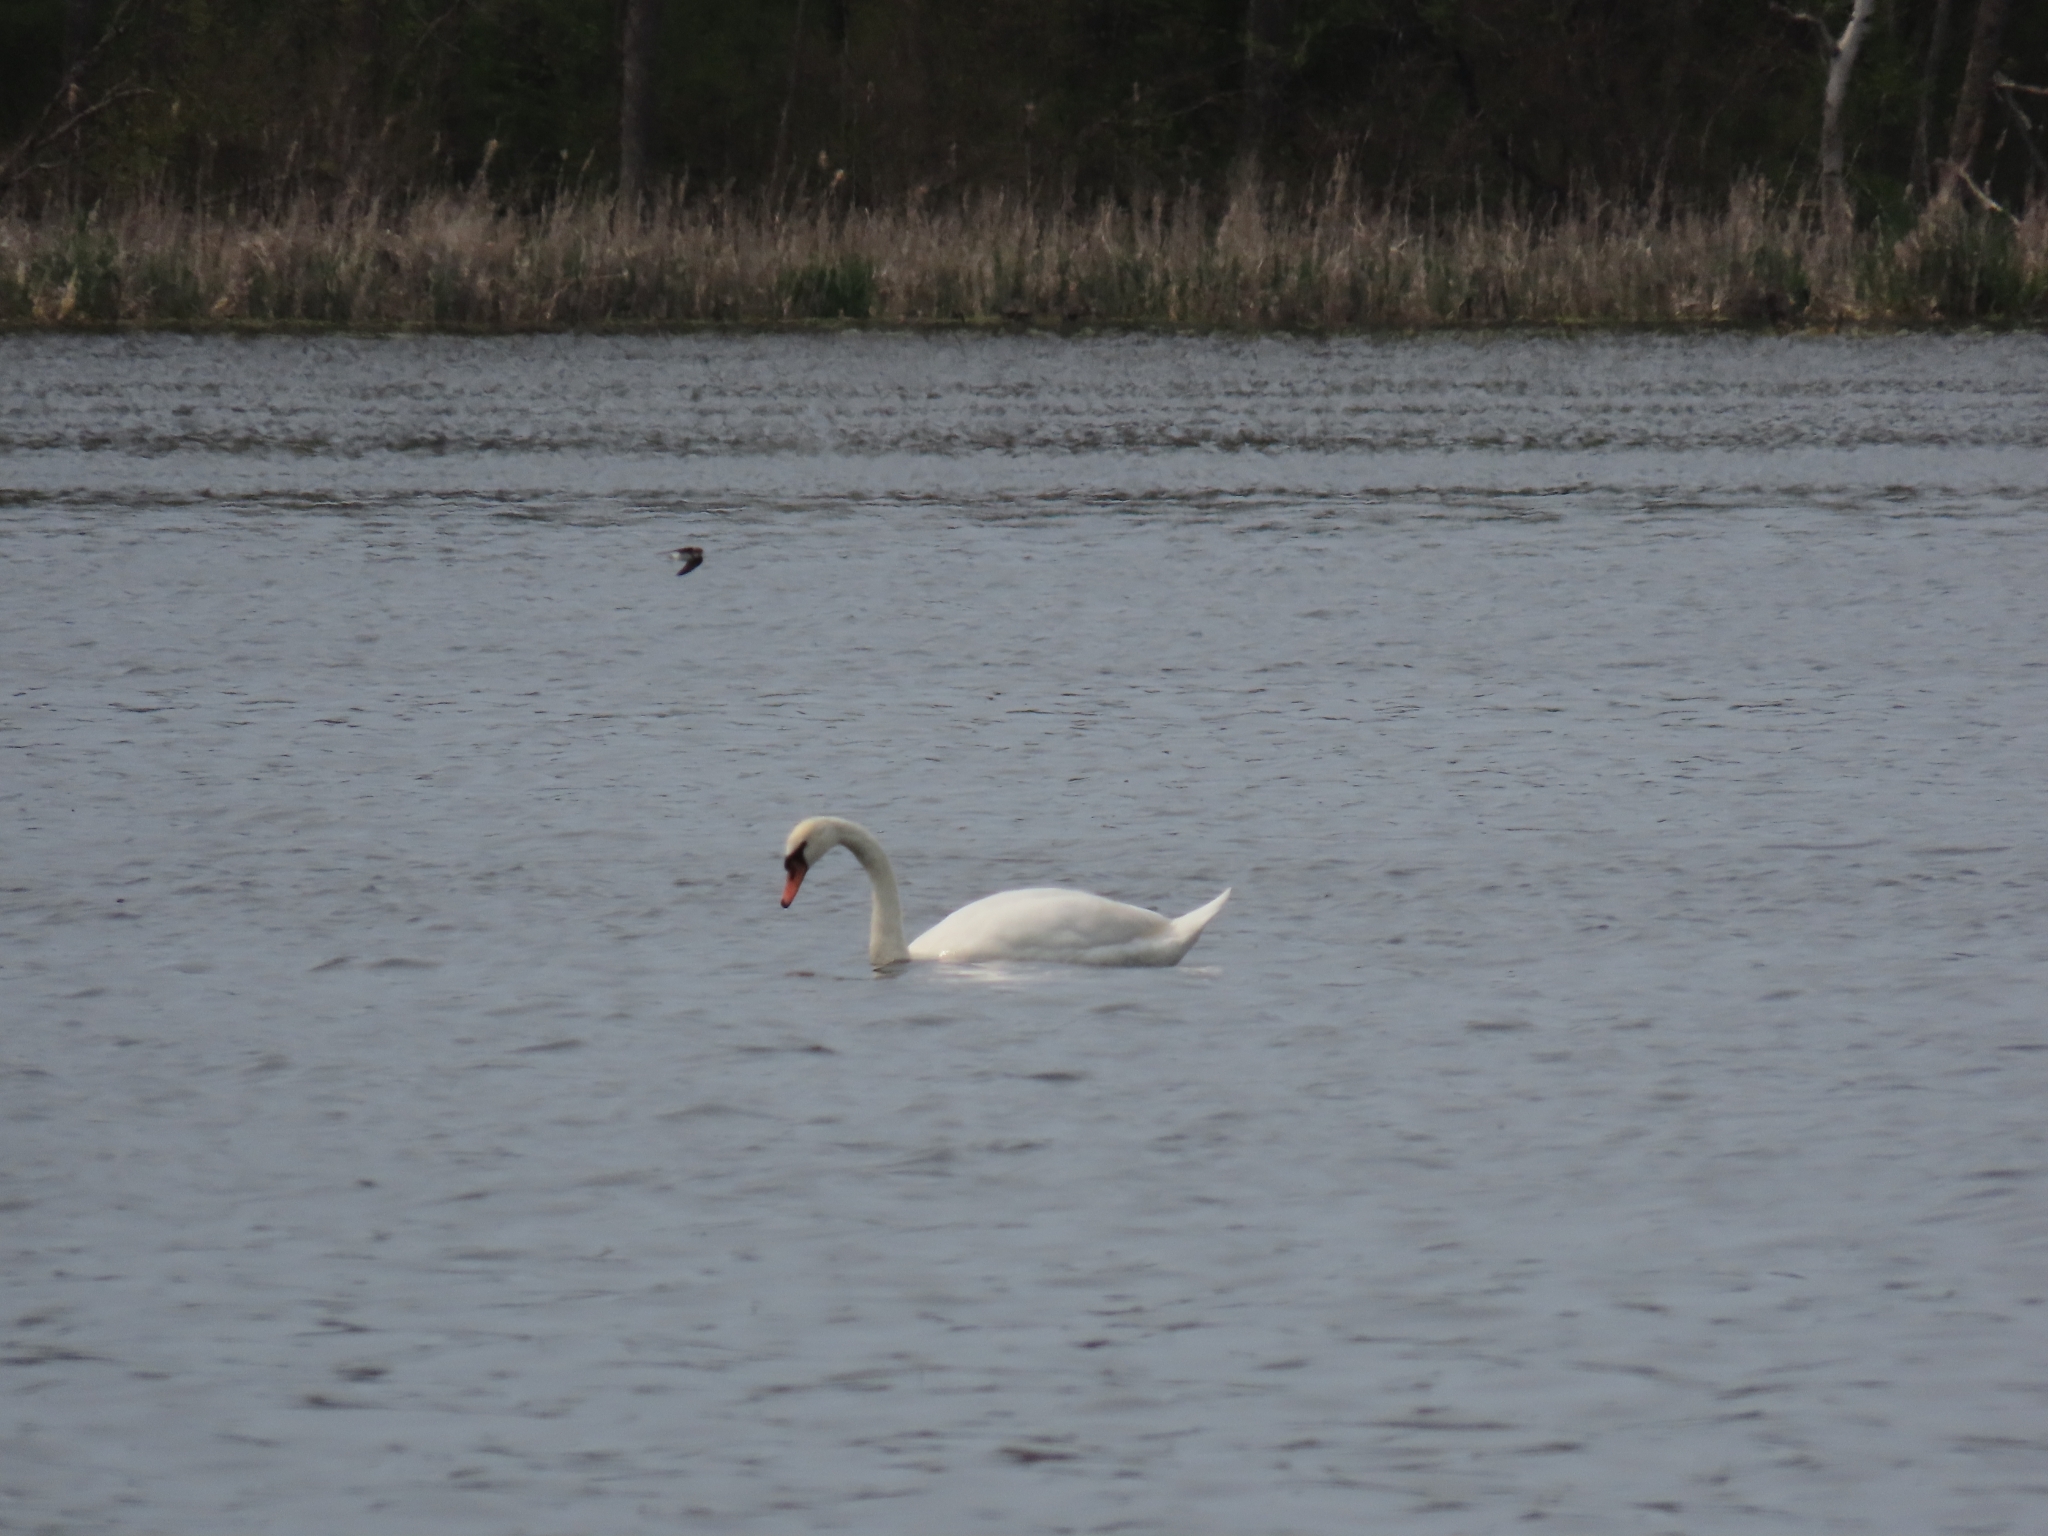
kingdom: Animalia
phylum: Chordata
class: Aves
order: Anseriformes
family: Anatidae
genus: Cygnus
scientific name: Cygnus olor
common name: Mute swan
